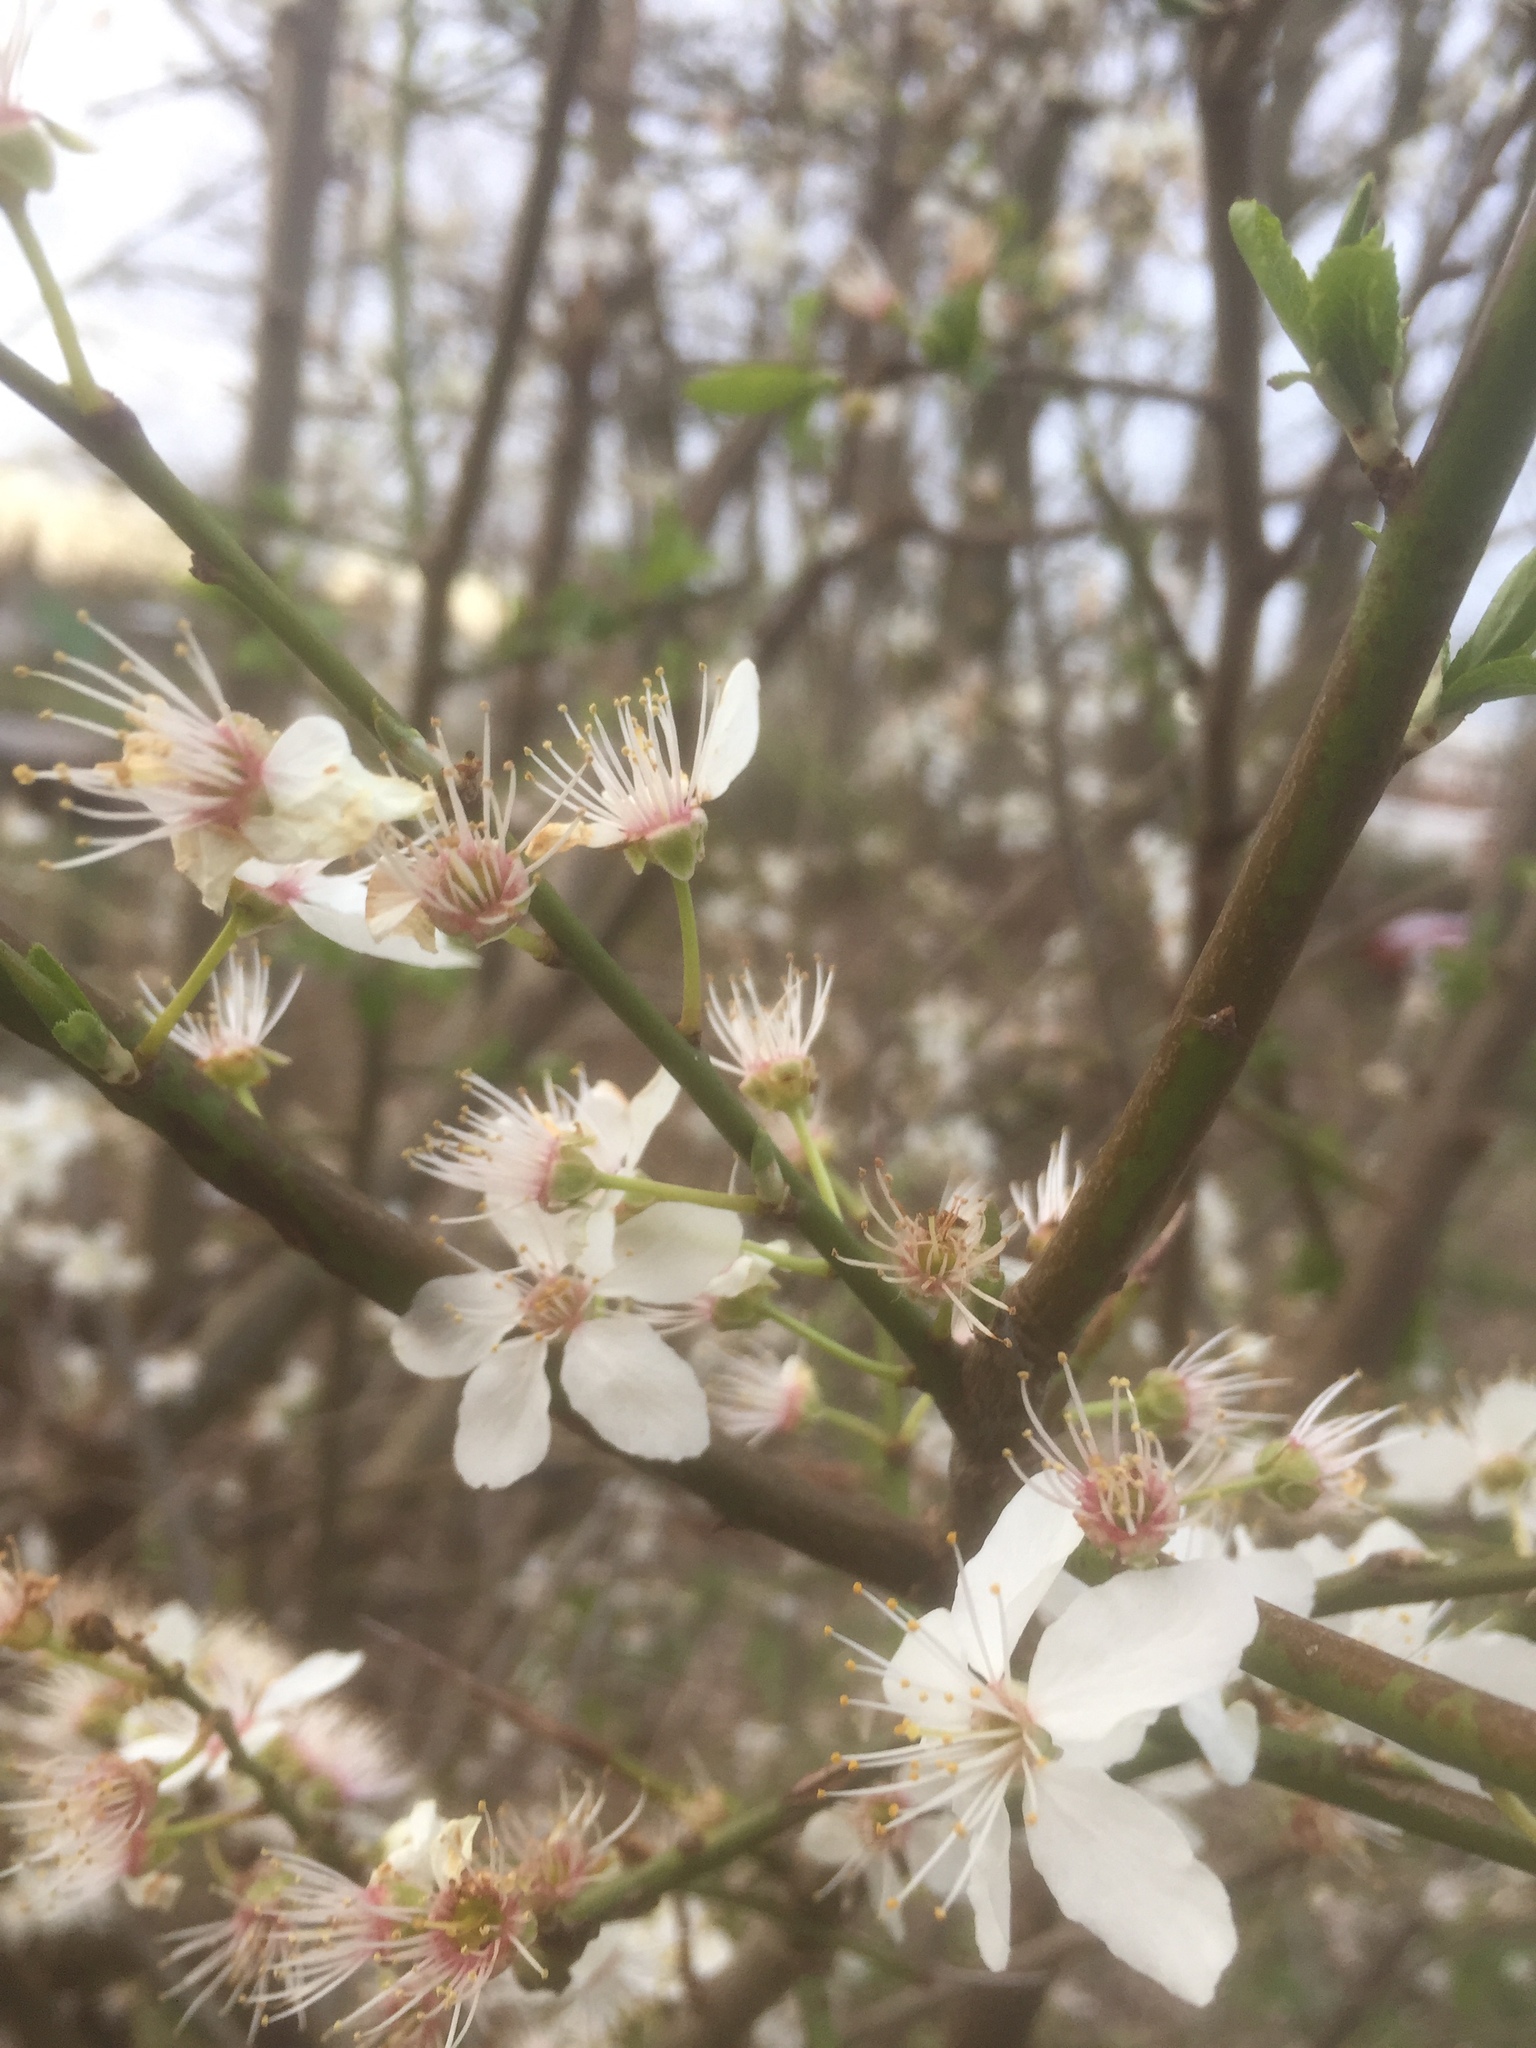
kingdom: Plantae
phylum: Tracheophyta
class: Magnoliopsida
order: Rosales
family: Rosaceae
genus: Prunus
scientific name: Prunus cerasifera
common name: Cherry plum
